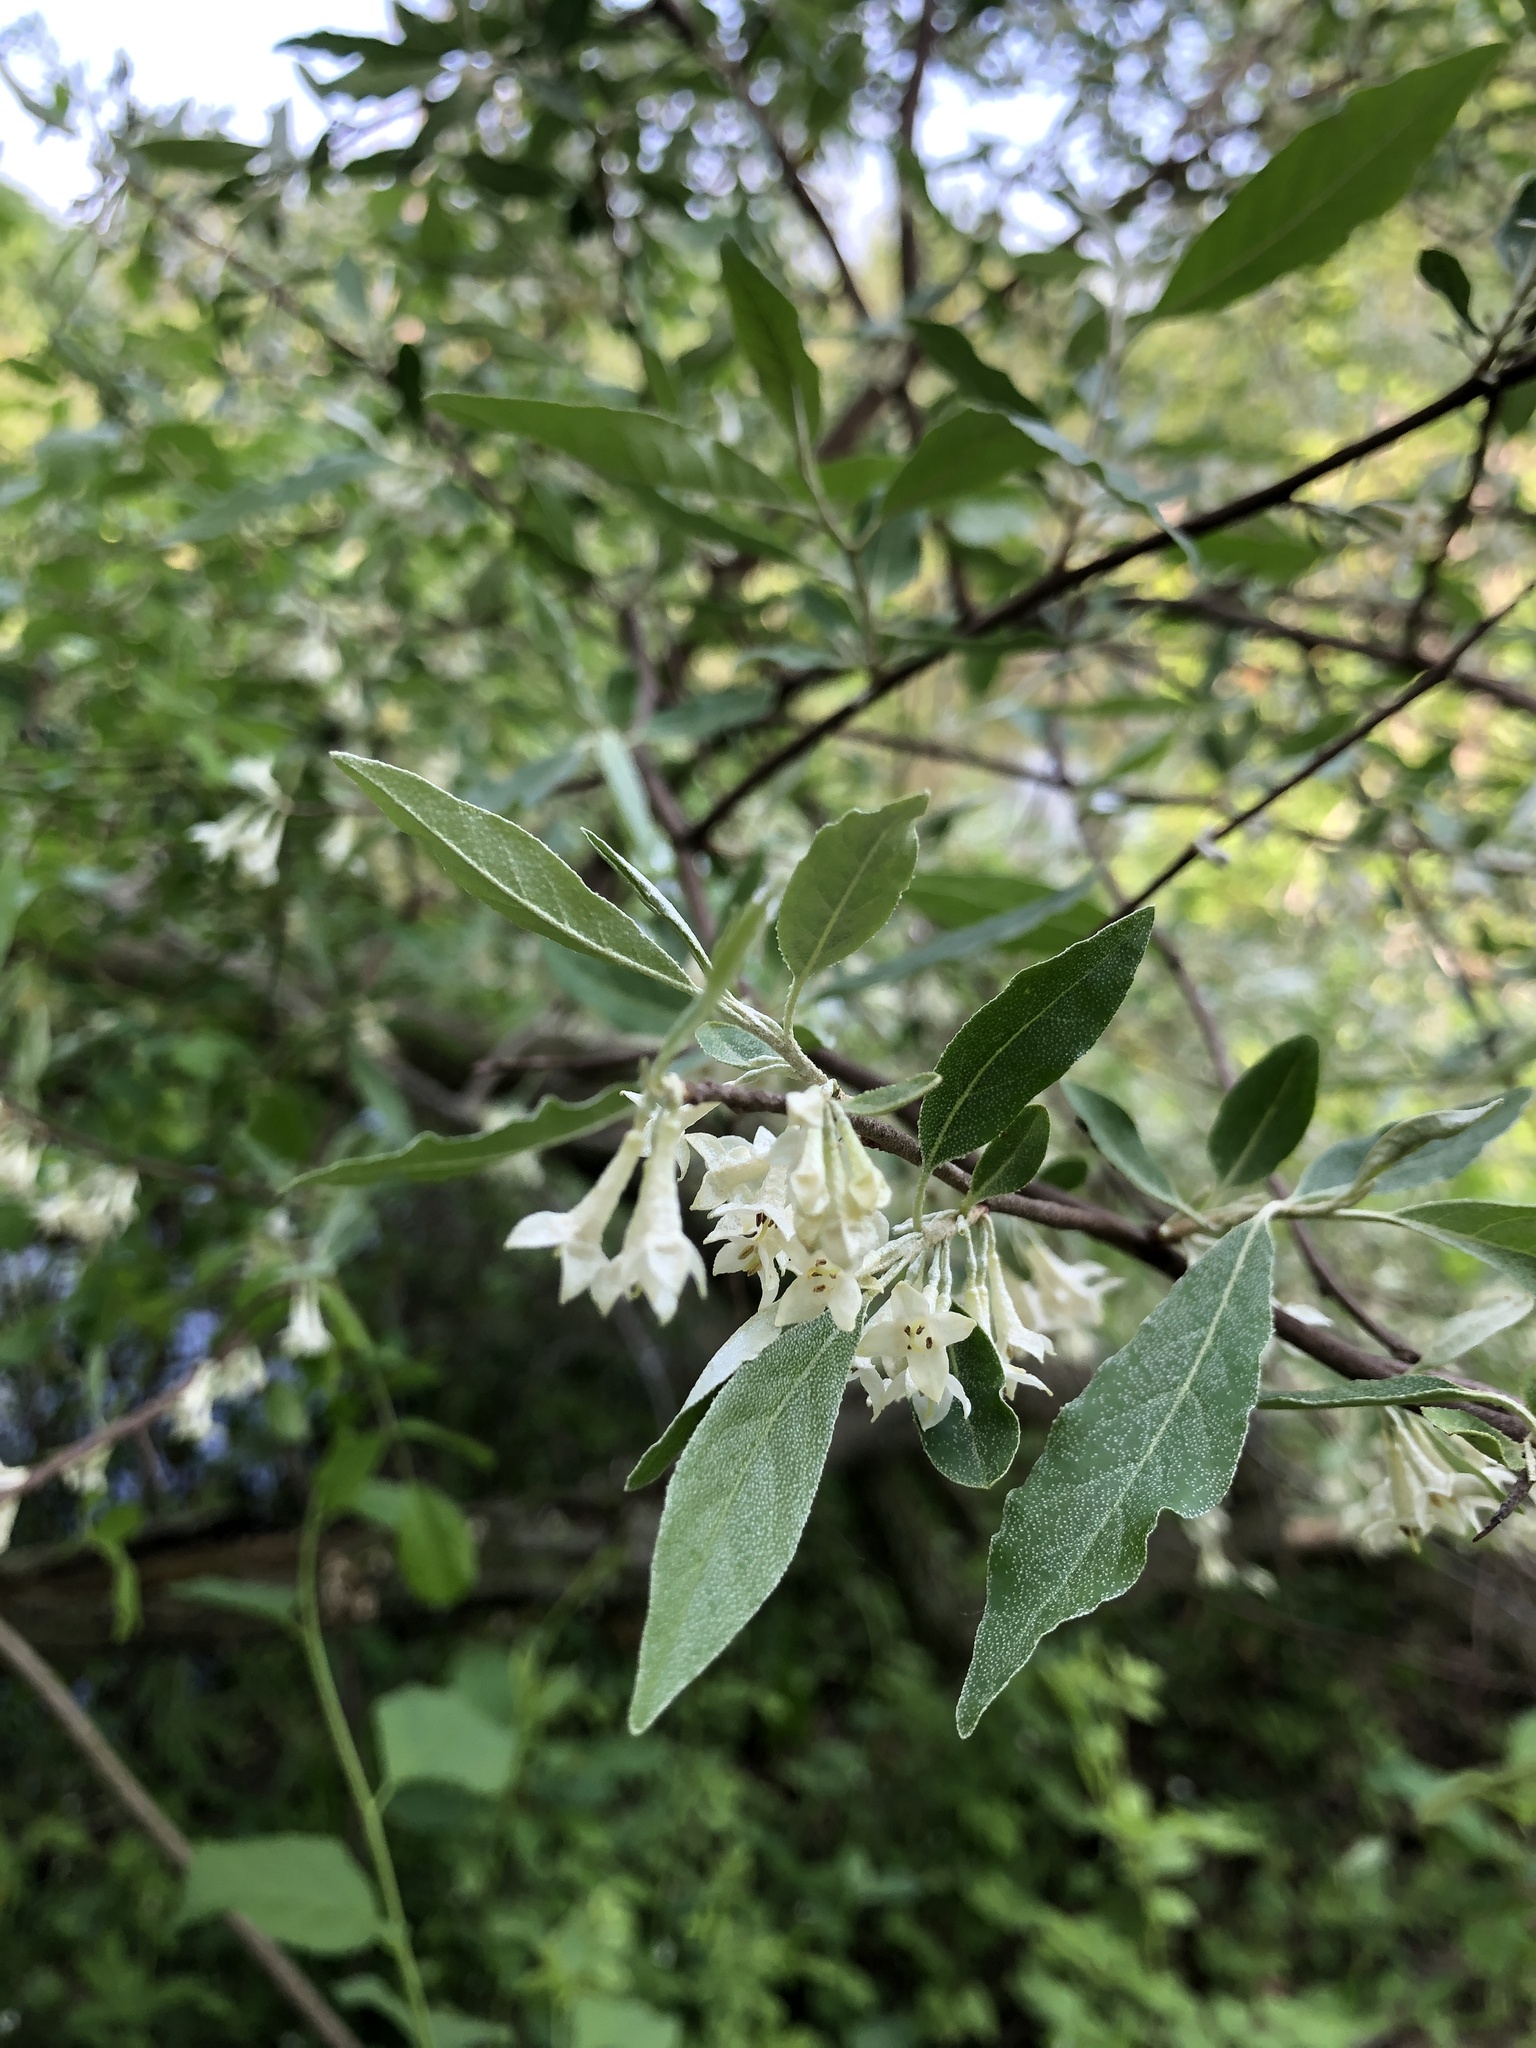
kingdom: Plantae
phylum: Tracheophyta
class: Magnoliopsida
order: Rosales
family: Elaeagnaceae
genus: Elaeagnus
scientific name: Elaeagnus umbellata
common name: Autumn olive
